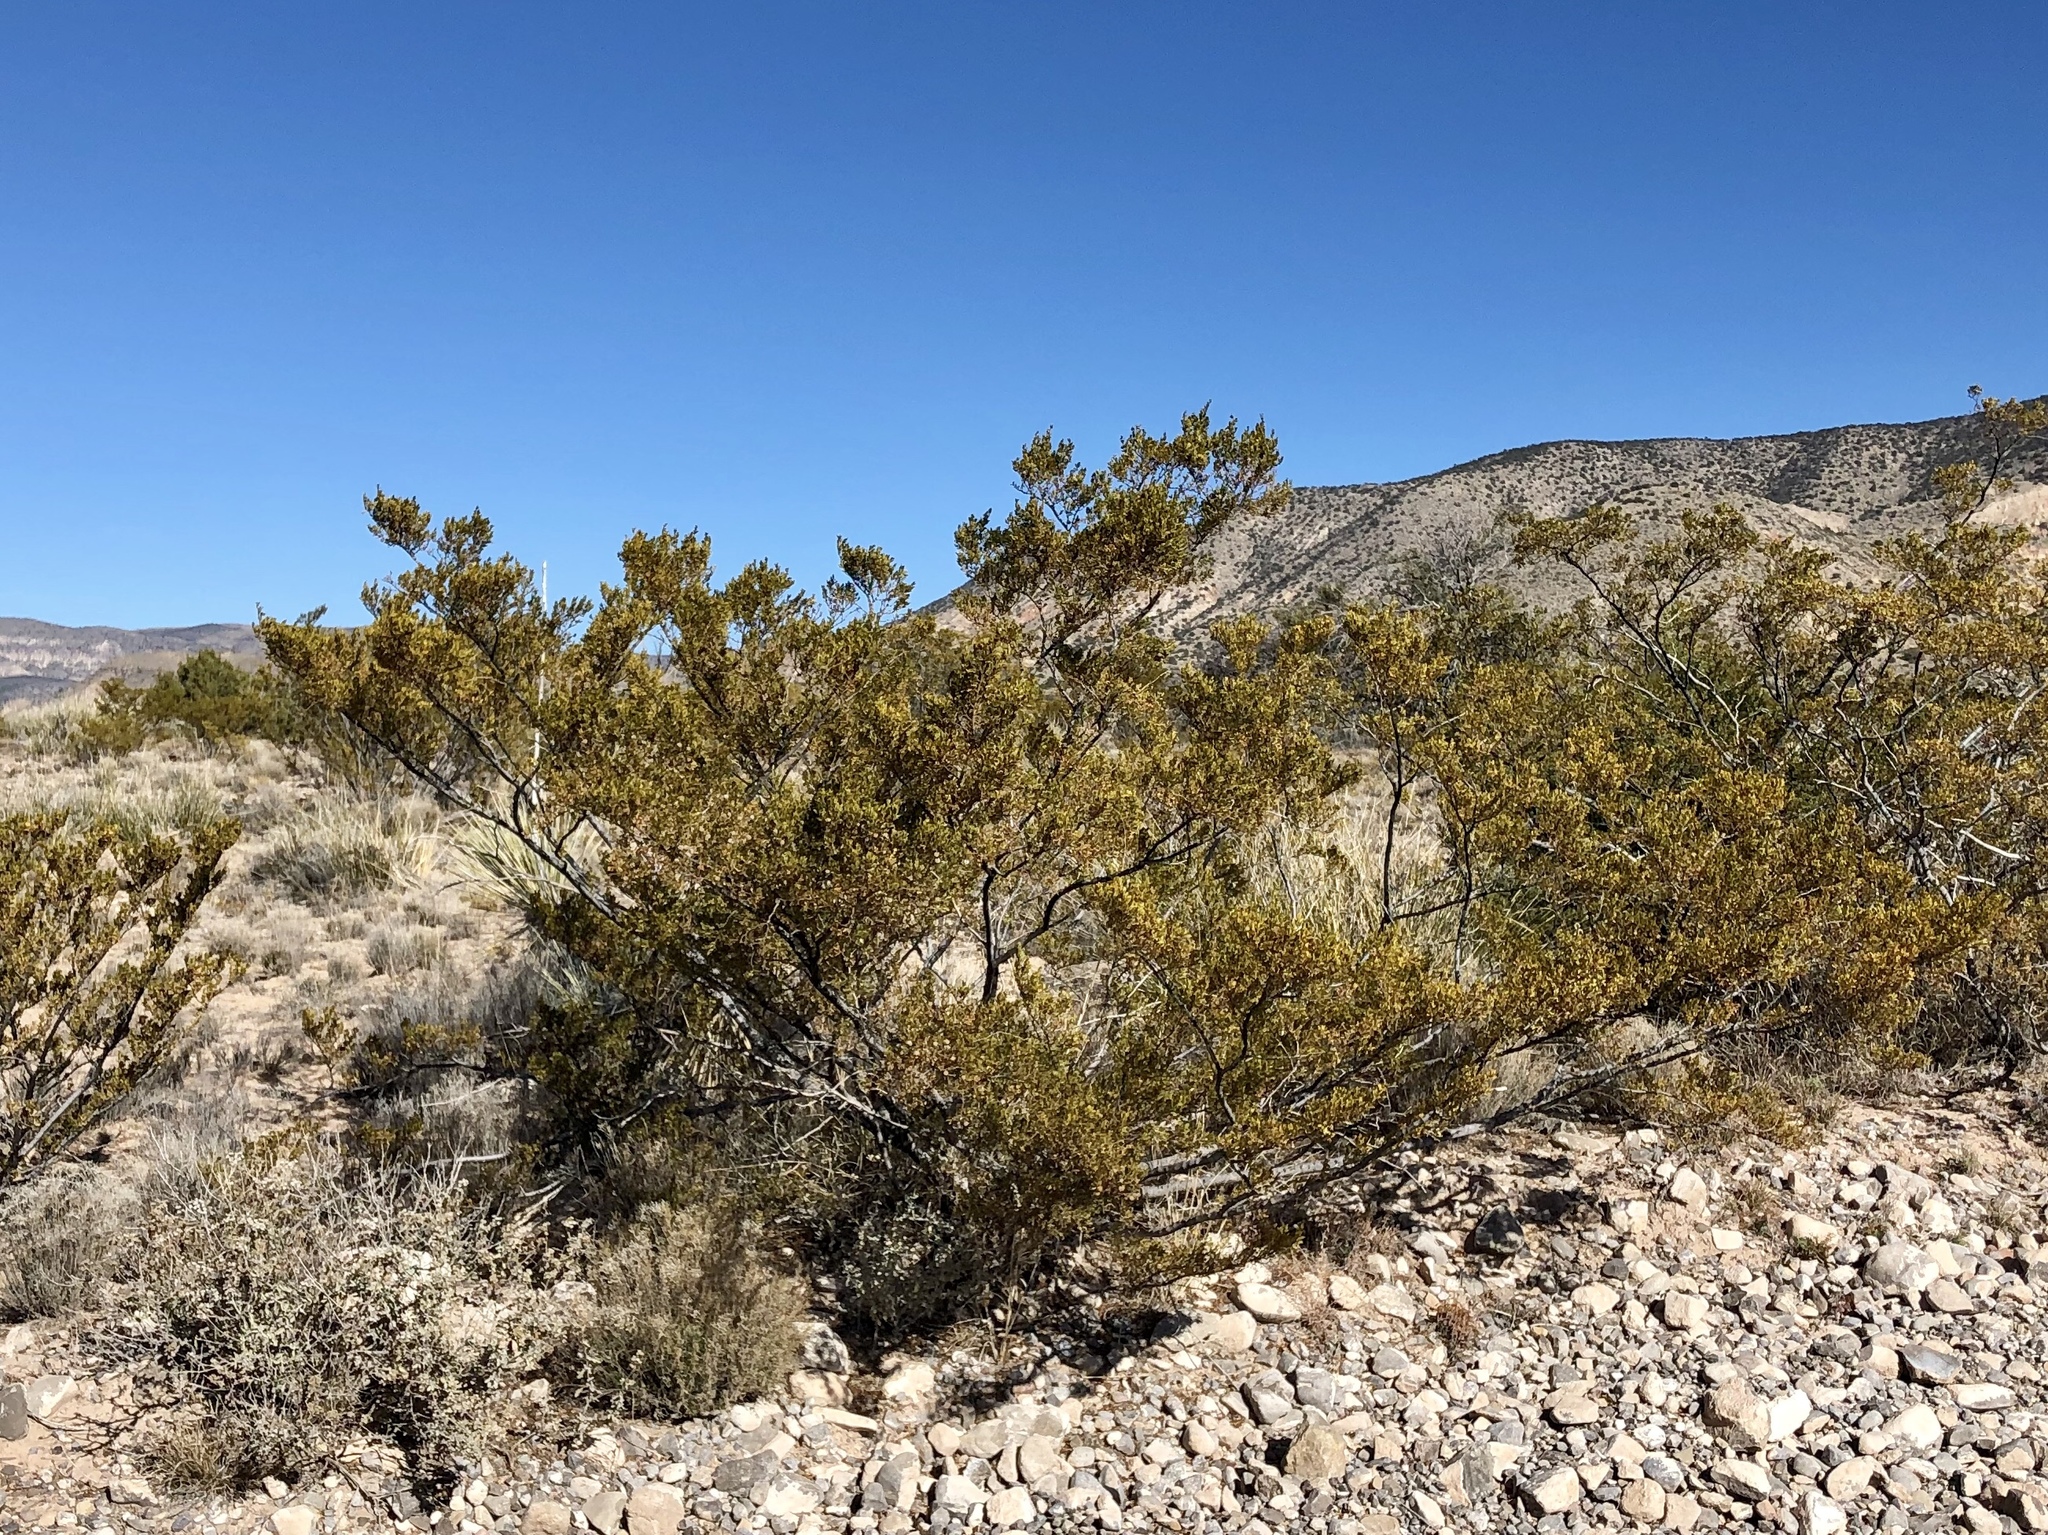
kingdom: Plantae
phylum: Tracheophyta
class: Magnoliopsida
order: Zygophyllales
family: Zygophyllaceae
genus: Larrea
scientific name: Larrea tridentata
